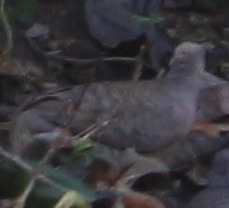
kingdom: Animalia
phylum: Chordata
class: Aves
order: Columbiformes
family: Columbidae
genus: Columbina
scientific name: Columbina inca
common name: Inca dove
